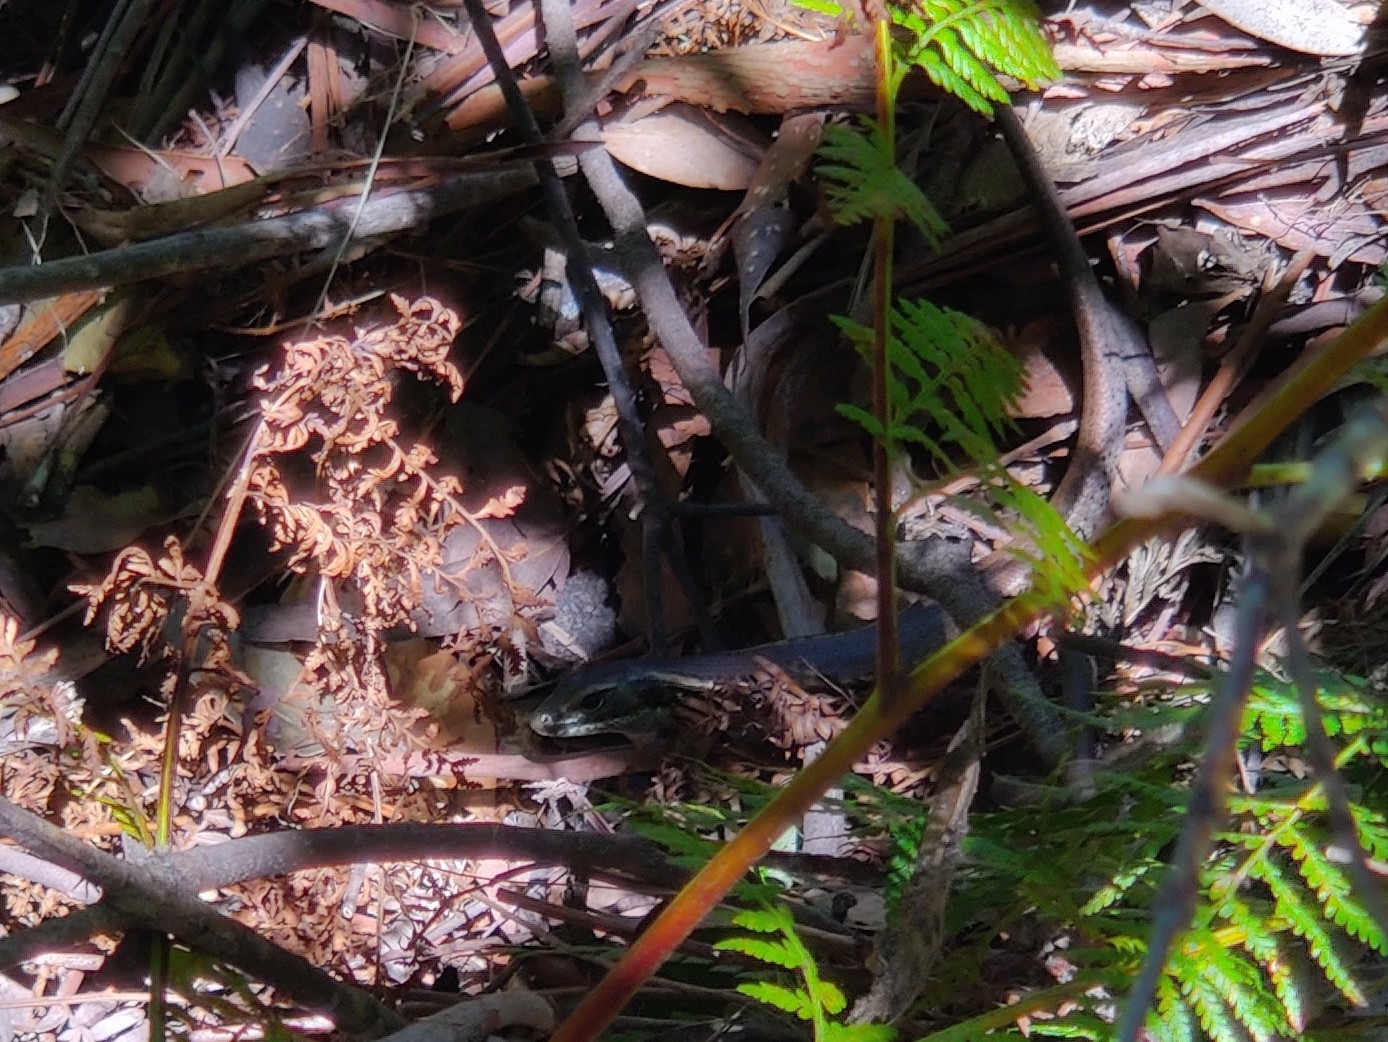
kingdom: Animalia
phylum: Chordata
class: Squamata
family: Scincidae
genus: Eulamprus
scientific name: Eulamprus quoyii
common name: Eastern water skink
